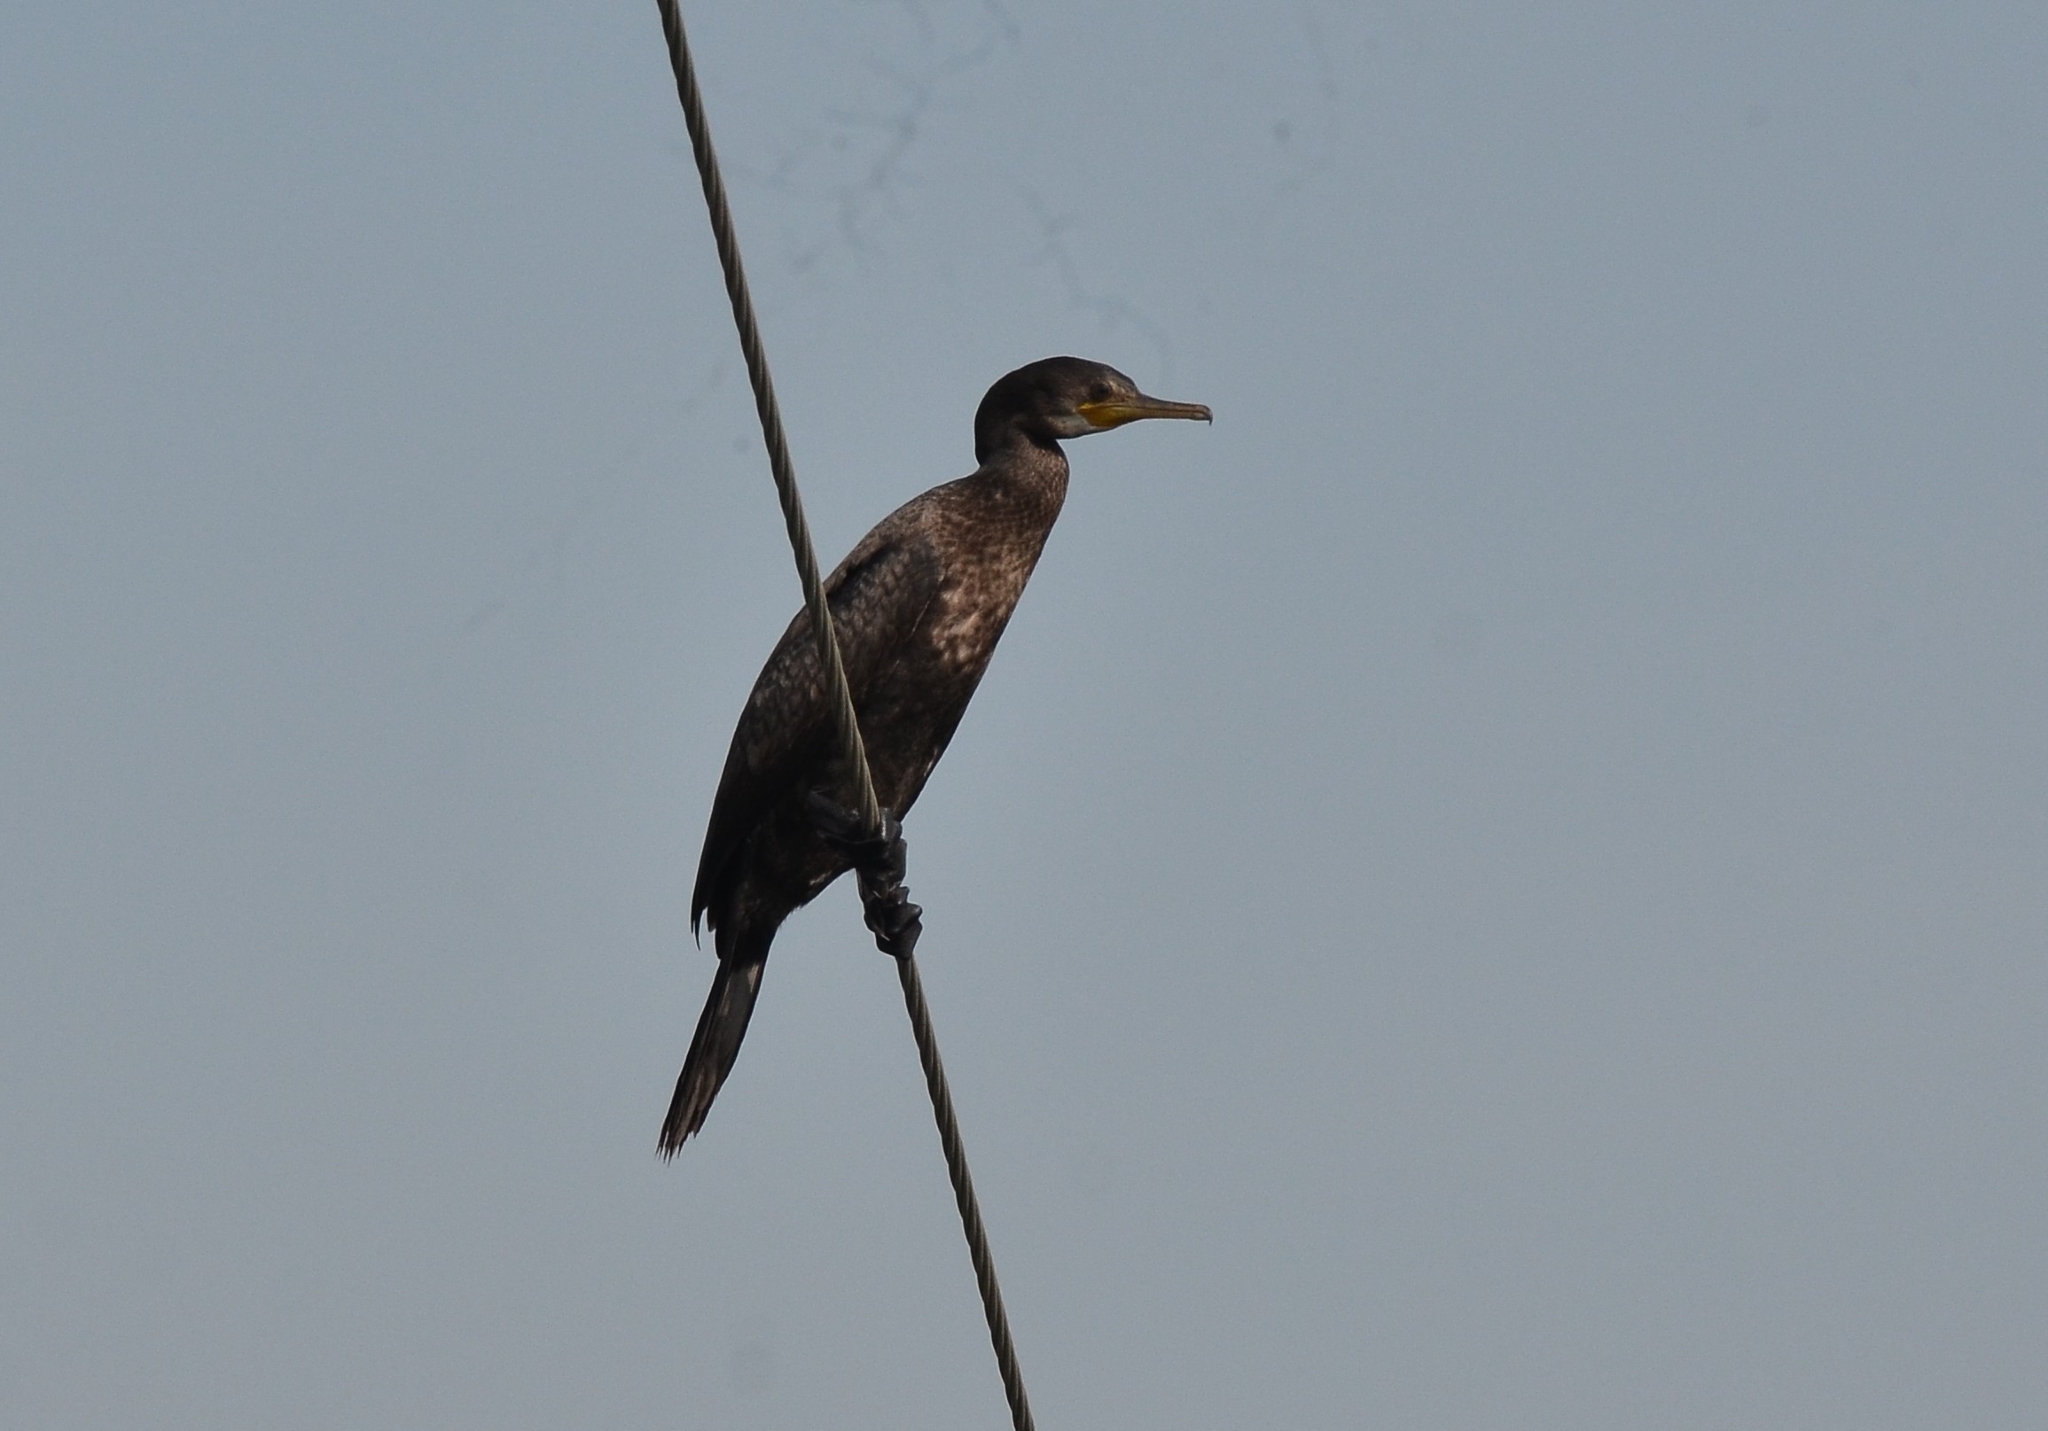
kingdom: Animalia
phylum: Chordata
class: Aves
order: Suliformes
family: Phalacrocoracidae
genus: Phalacrocorax
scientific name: Phalacrocorax fuscicollis
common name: Indian cormorant
